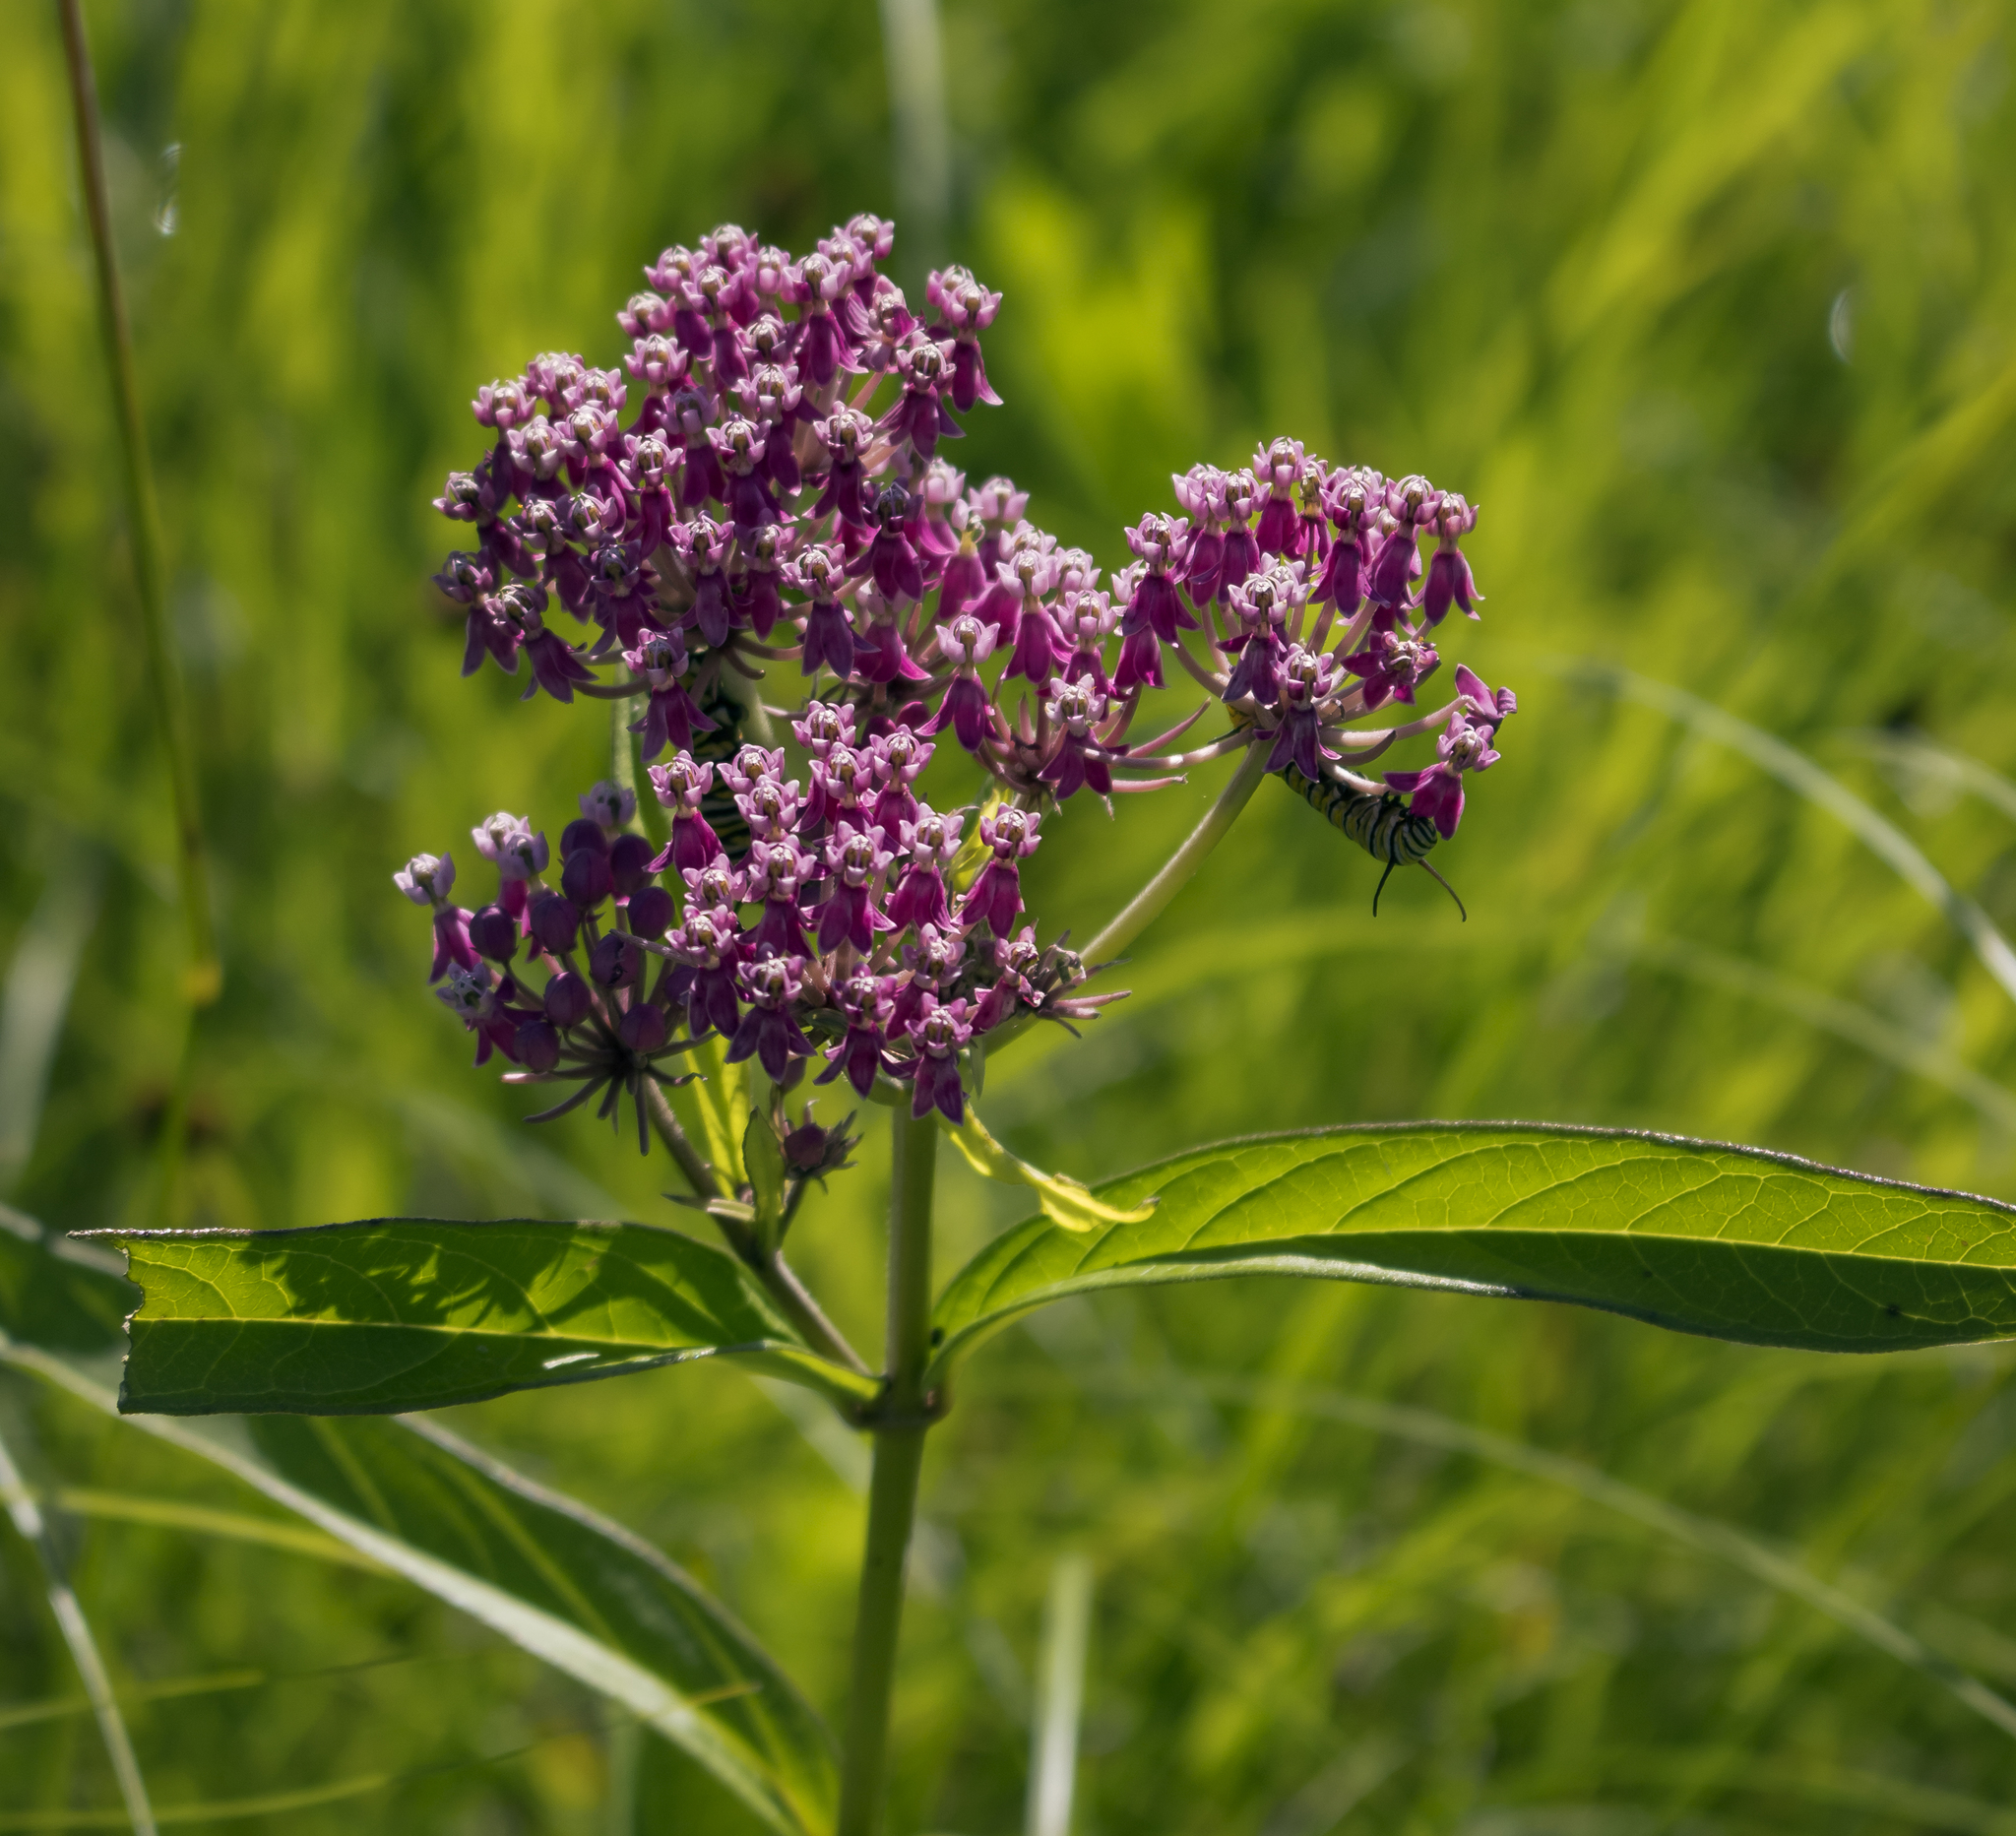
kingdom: Plantae
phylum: Tracheophyta
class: Magnoliopsida
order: Gentianales
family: Apocynaceae
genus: Asclepias
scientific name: Asclepias incarnata
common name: Swamp milkweed
